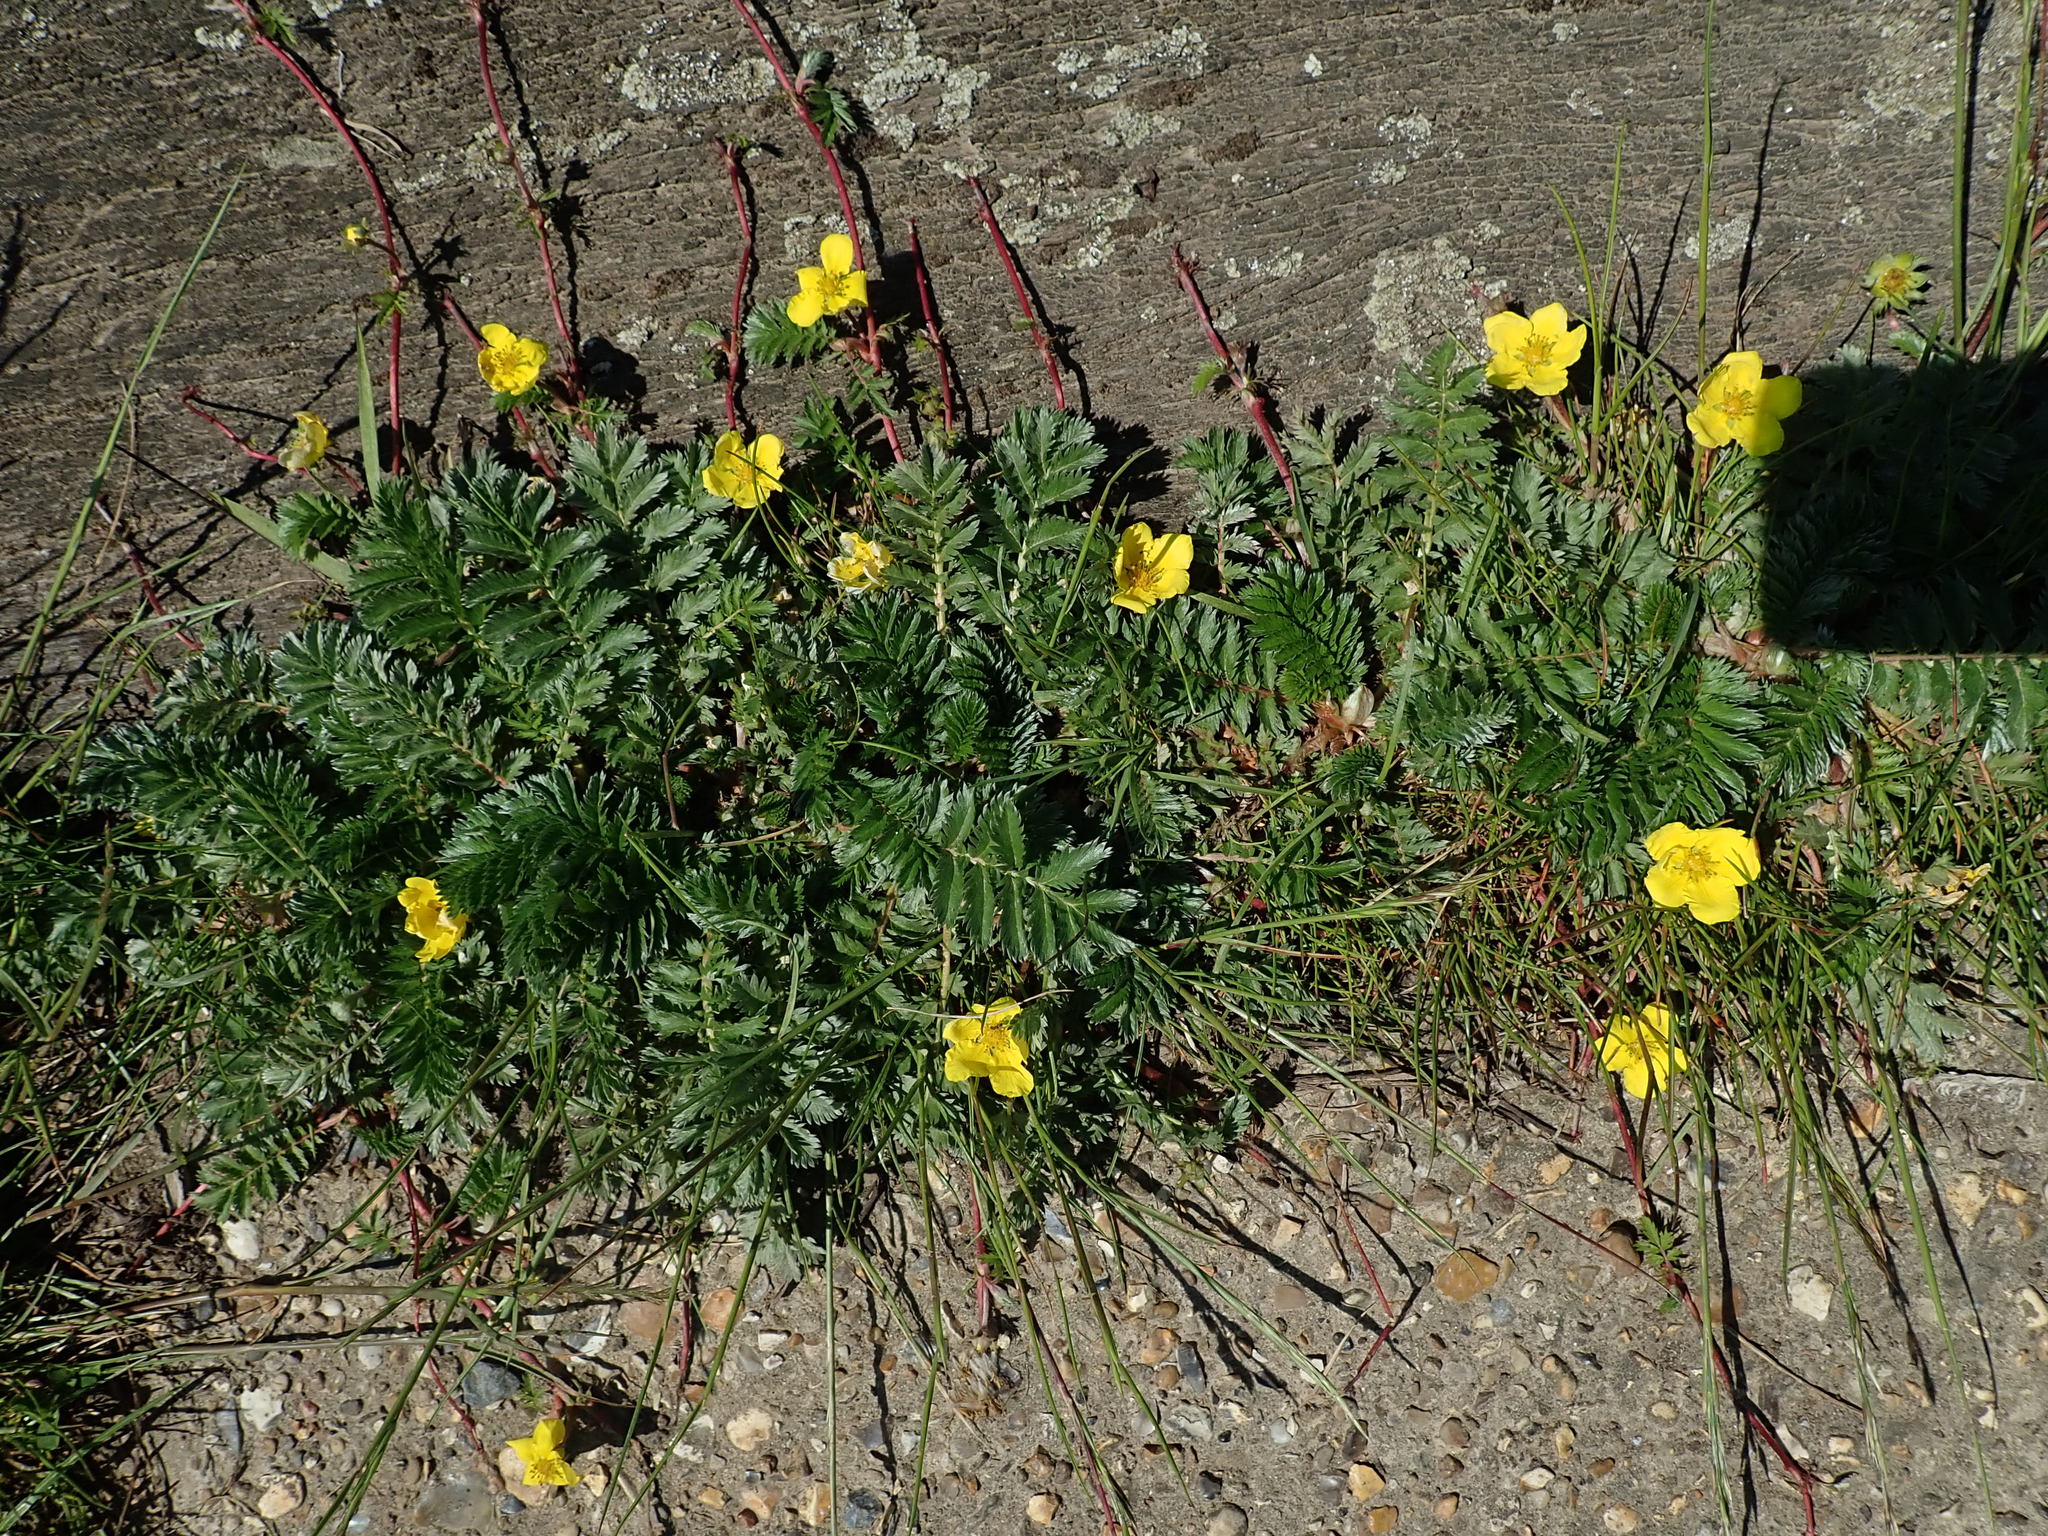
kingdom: Plantae
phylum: Tracheophyta
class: Magnoliopsida
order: Rosales
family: Rosaceae
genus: Argentina
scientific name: Argentina anserina
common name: Common silverweed
